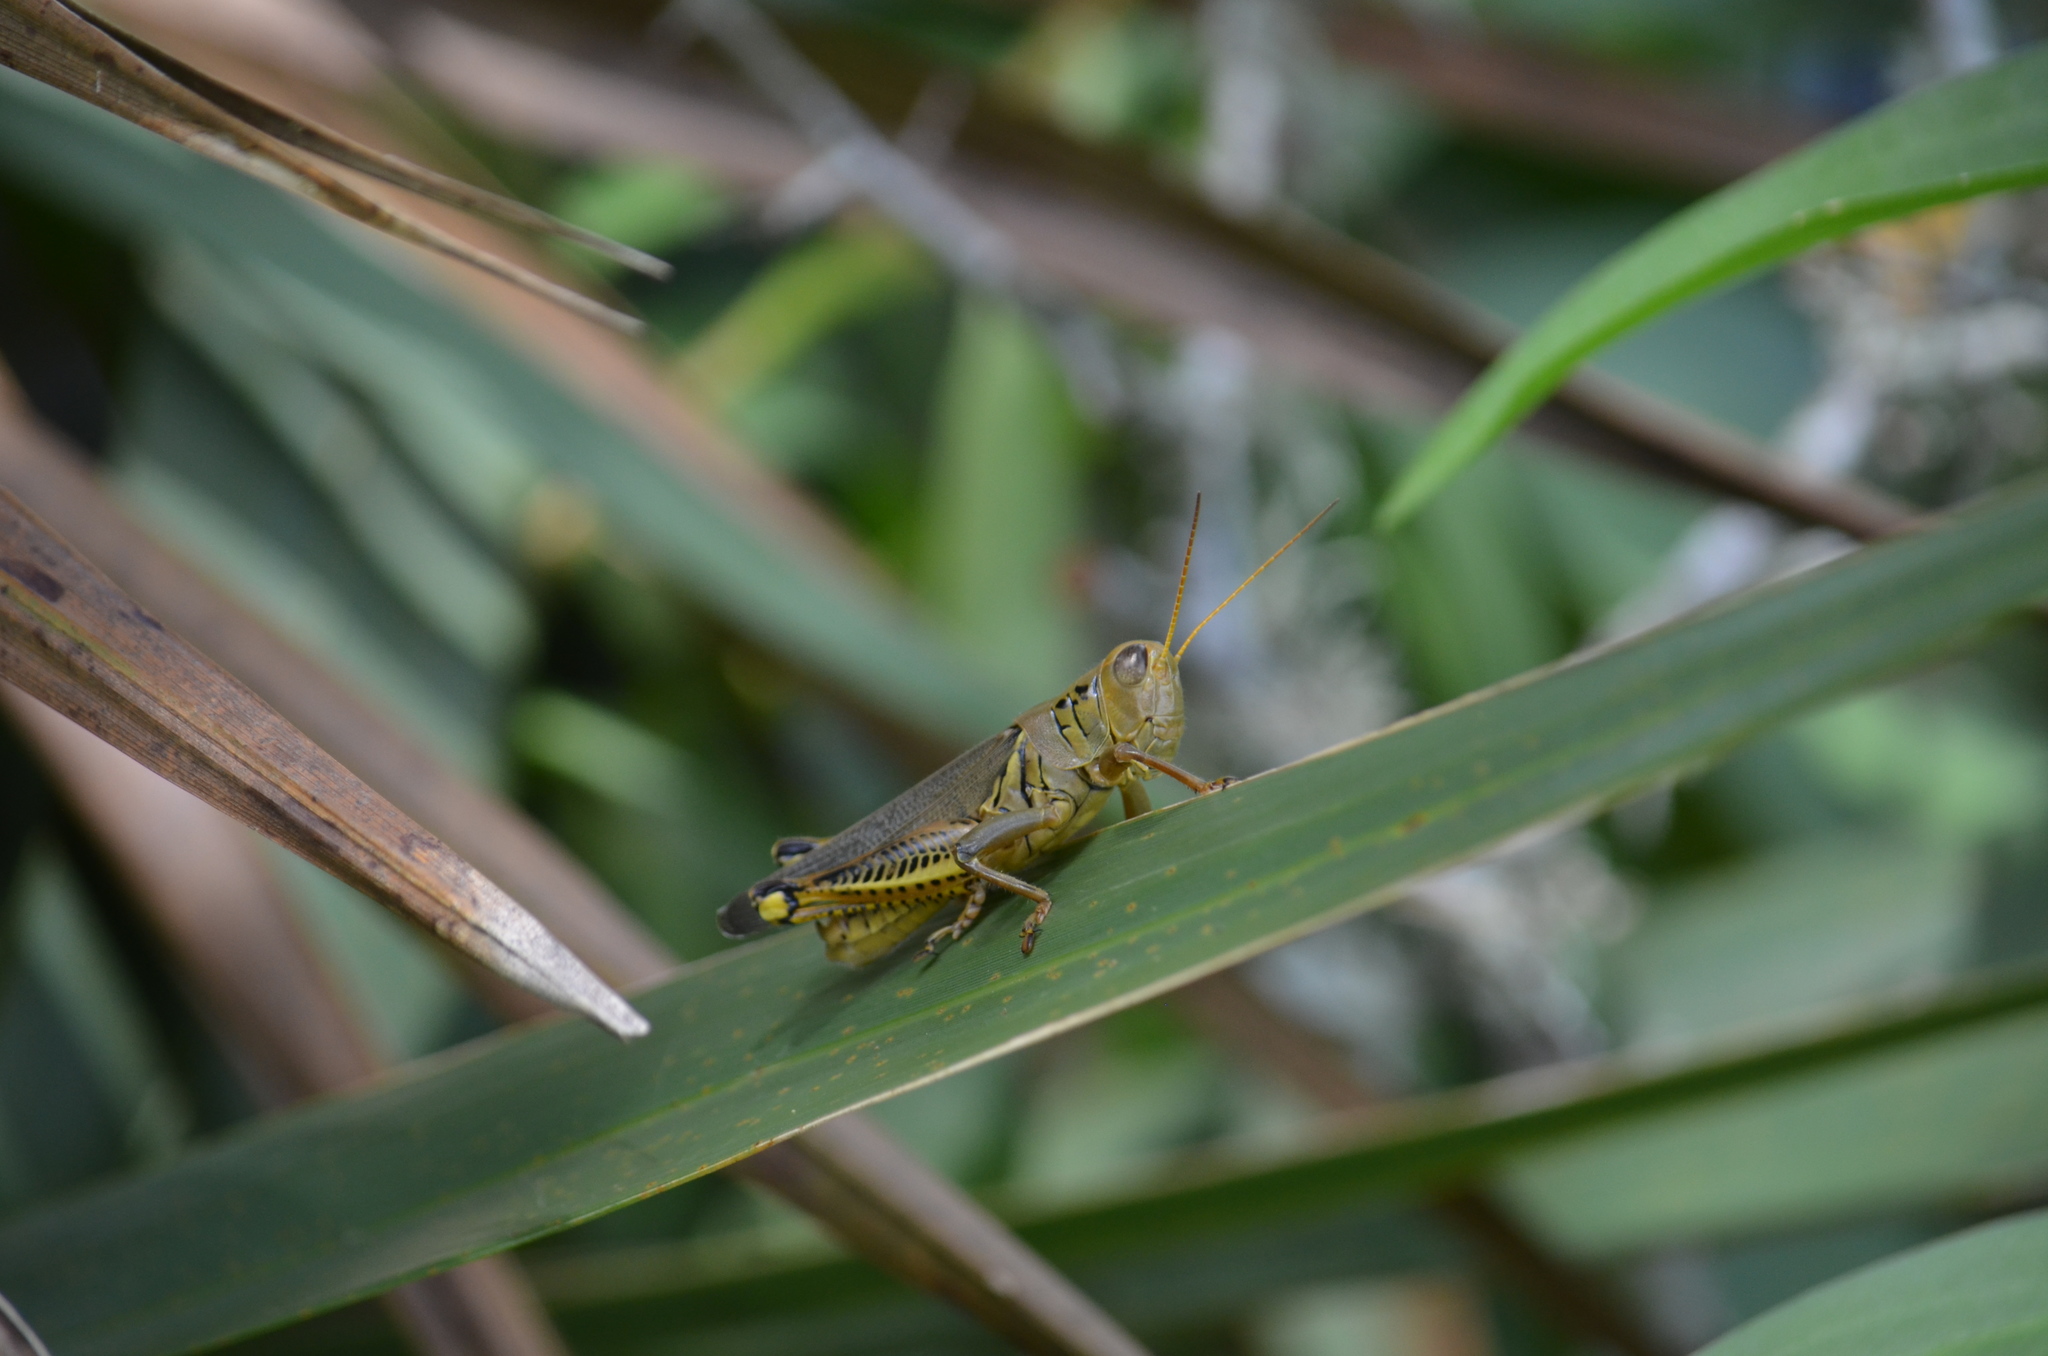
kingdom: Animalia
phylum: Arthropoda
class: Insecta
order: Orthoptera
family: Acrididae
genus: Melanoplus
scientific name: Melanoplus differentialis
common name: Differential grasshopper
